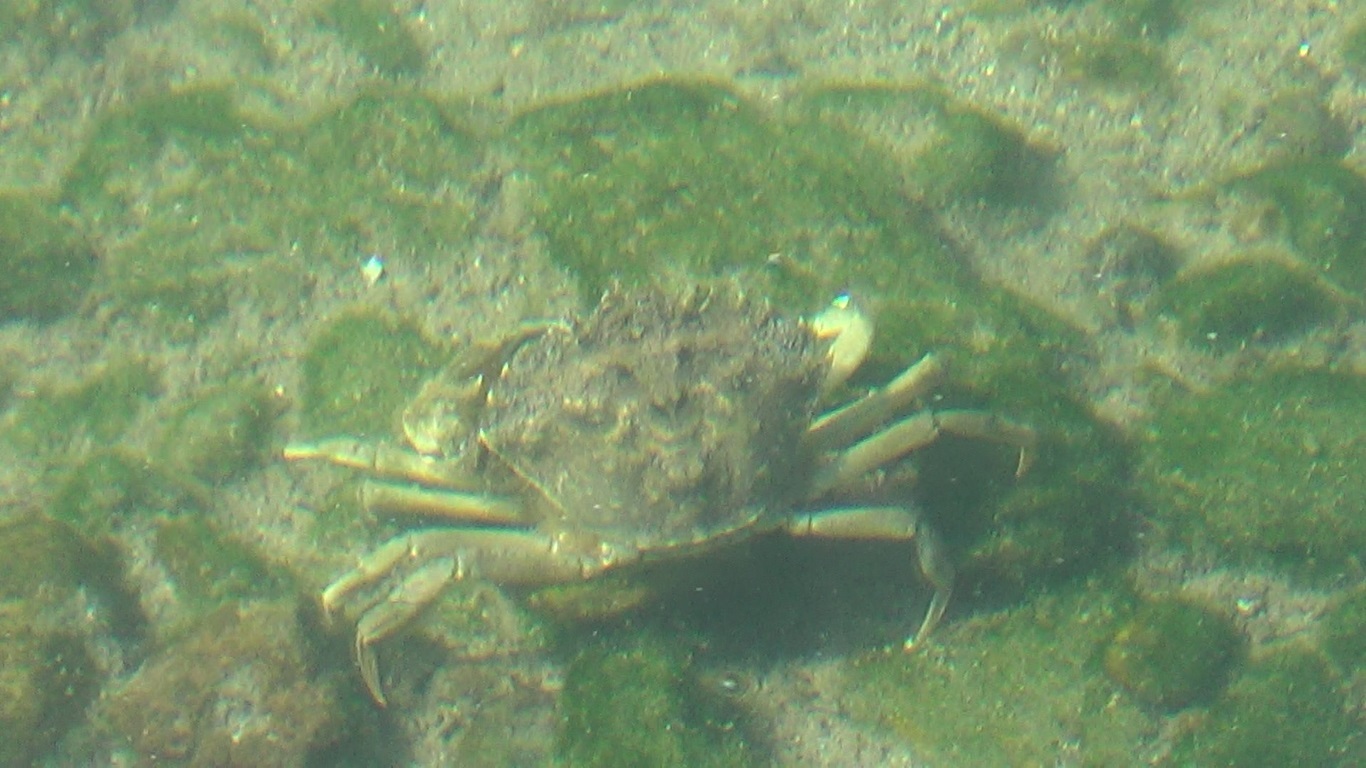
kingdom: Animalia
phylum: Arthropoda
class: Malacostraca
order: Decapoda
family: Carcinidae
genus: Carcinus
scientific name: Carcinus aestuarii
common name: Mediterranean green crab
